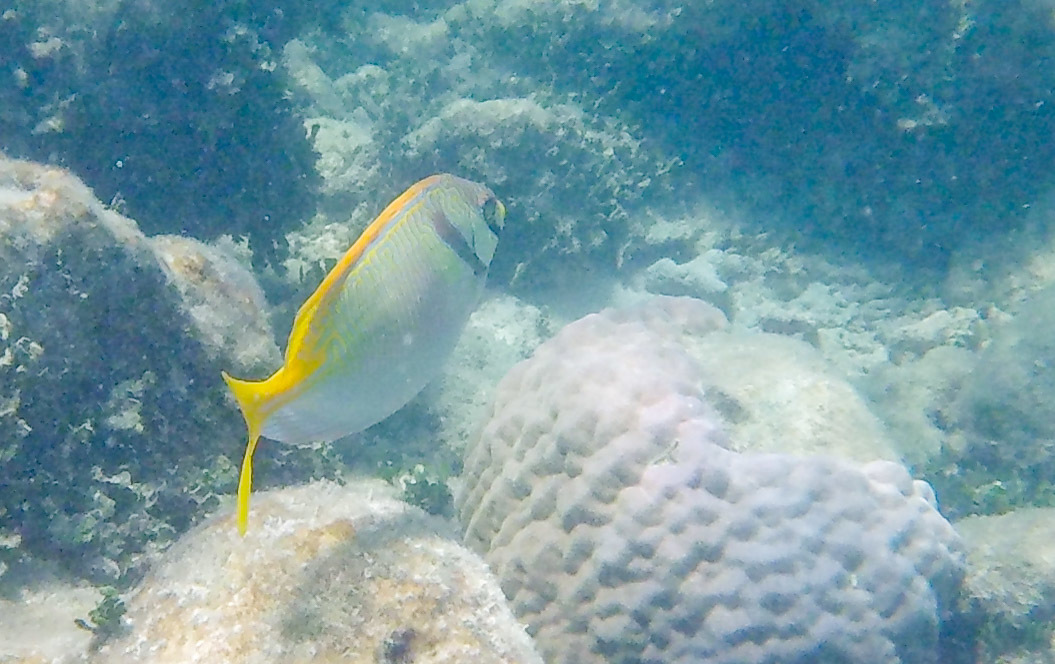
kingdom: Animalia
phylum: Chordata
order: Perciformes
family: Siganidae
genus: Siganus
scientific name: Siganus doliatus
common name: Barred spinefoot
